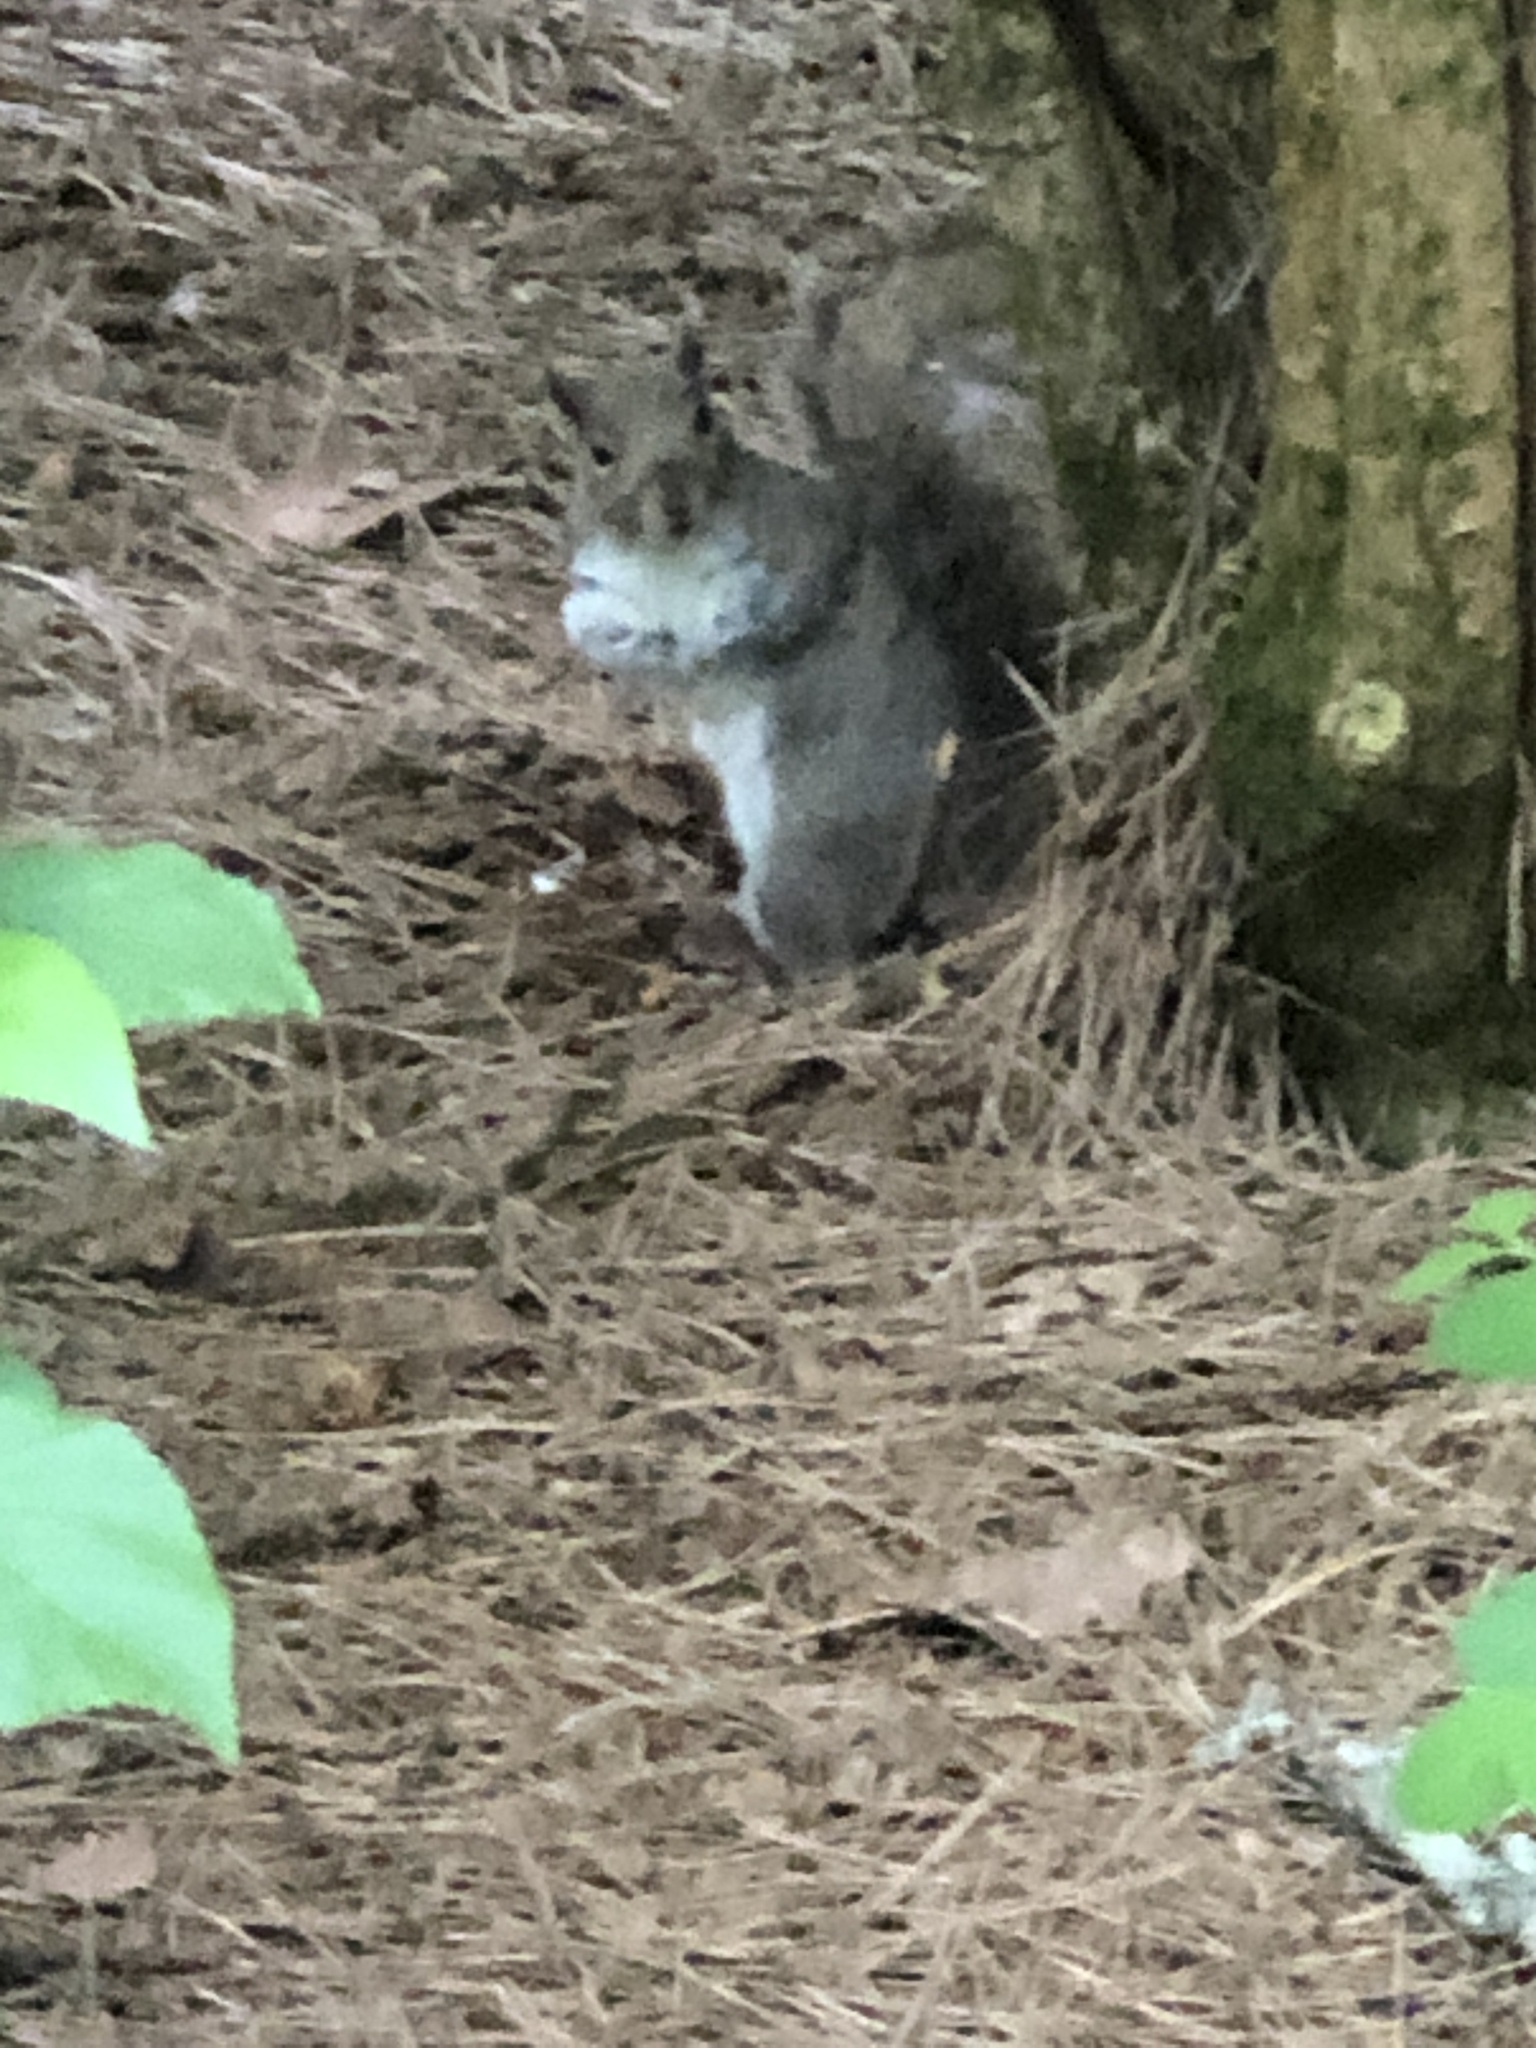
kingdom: Animalia
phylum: Chordata
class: Mammalia
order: Rodentia
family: Sciuridae
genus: Sciurus
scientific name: Sciurus carolinensis
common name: Eastern gray squirrel
